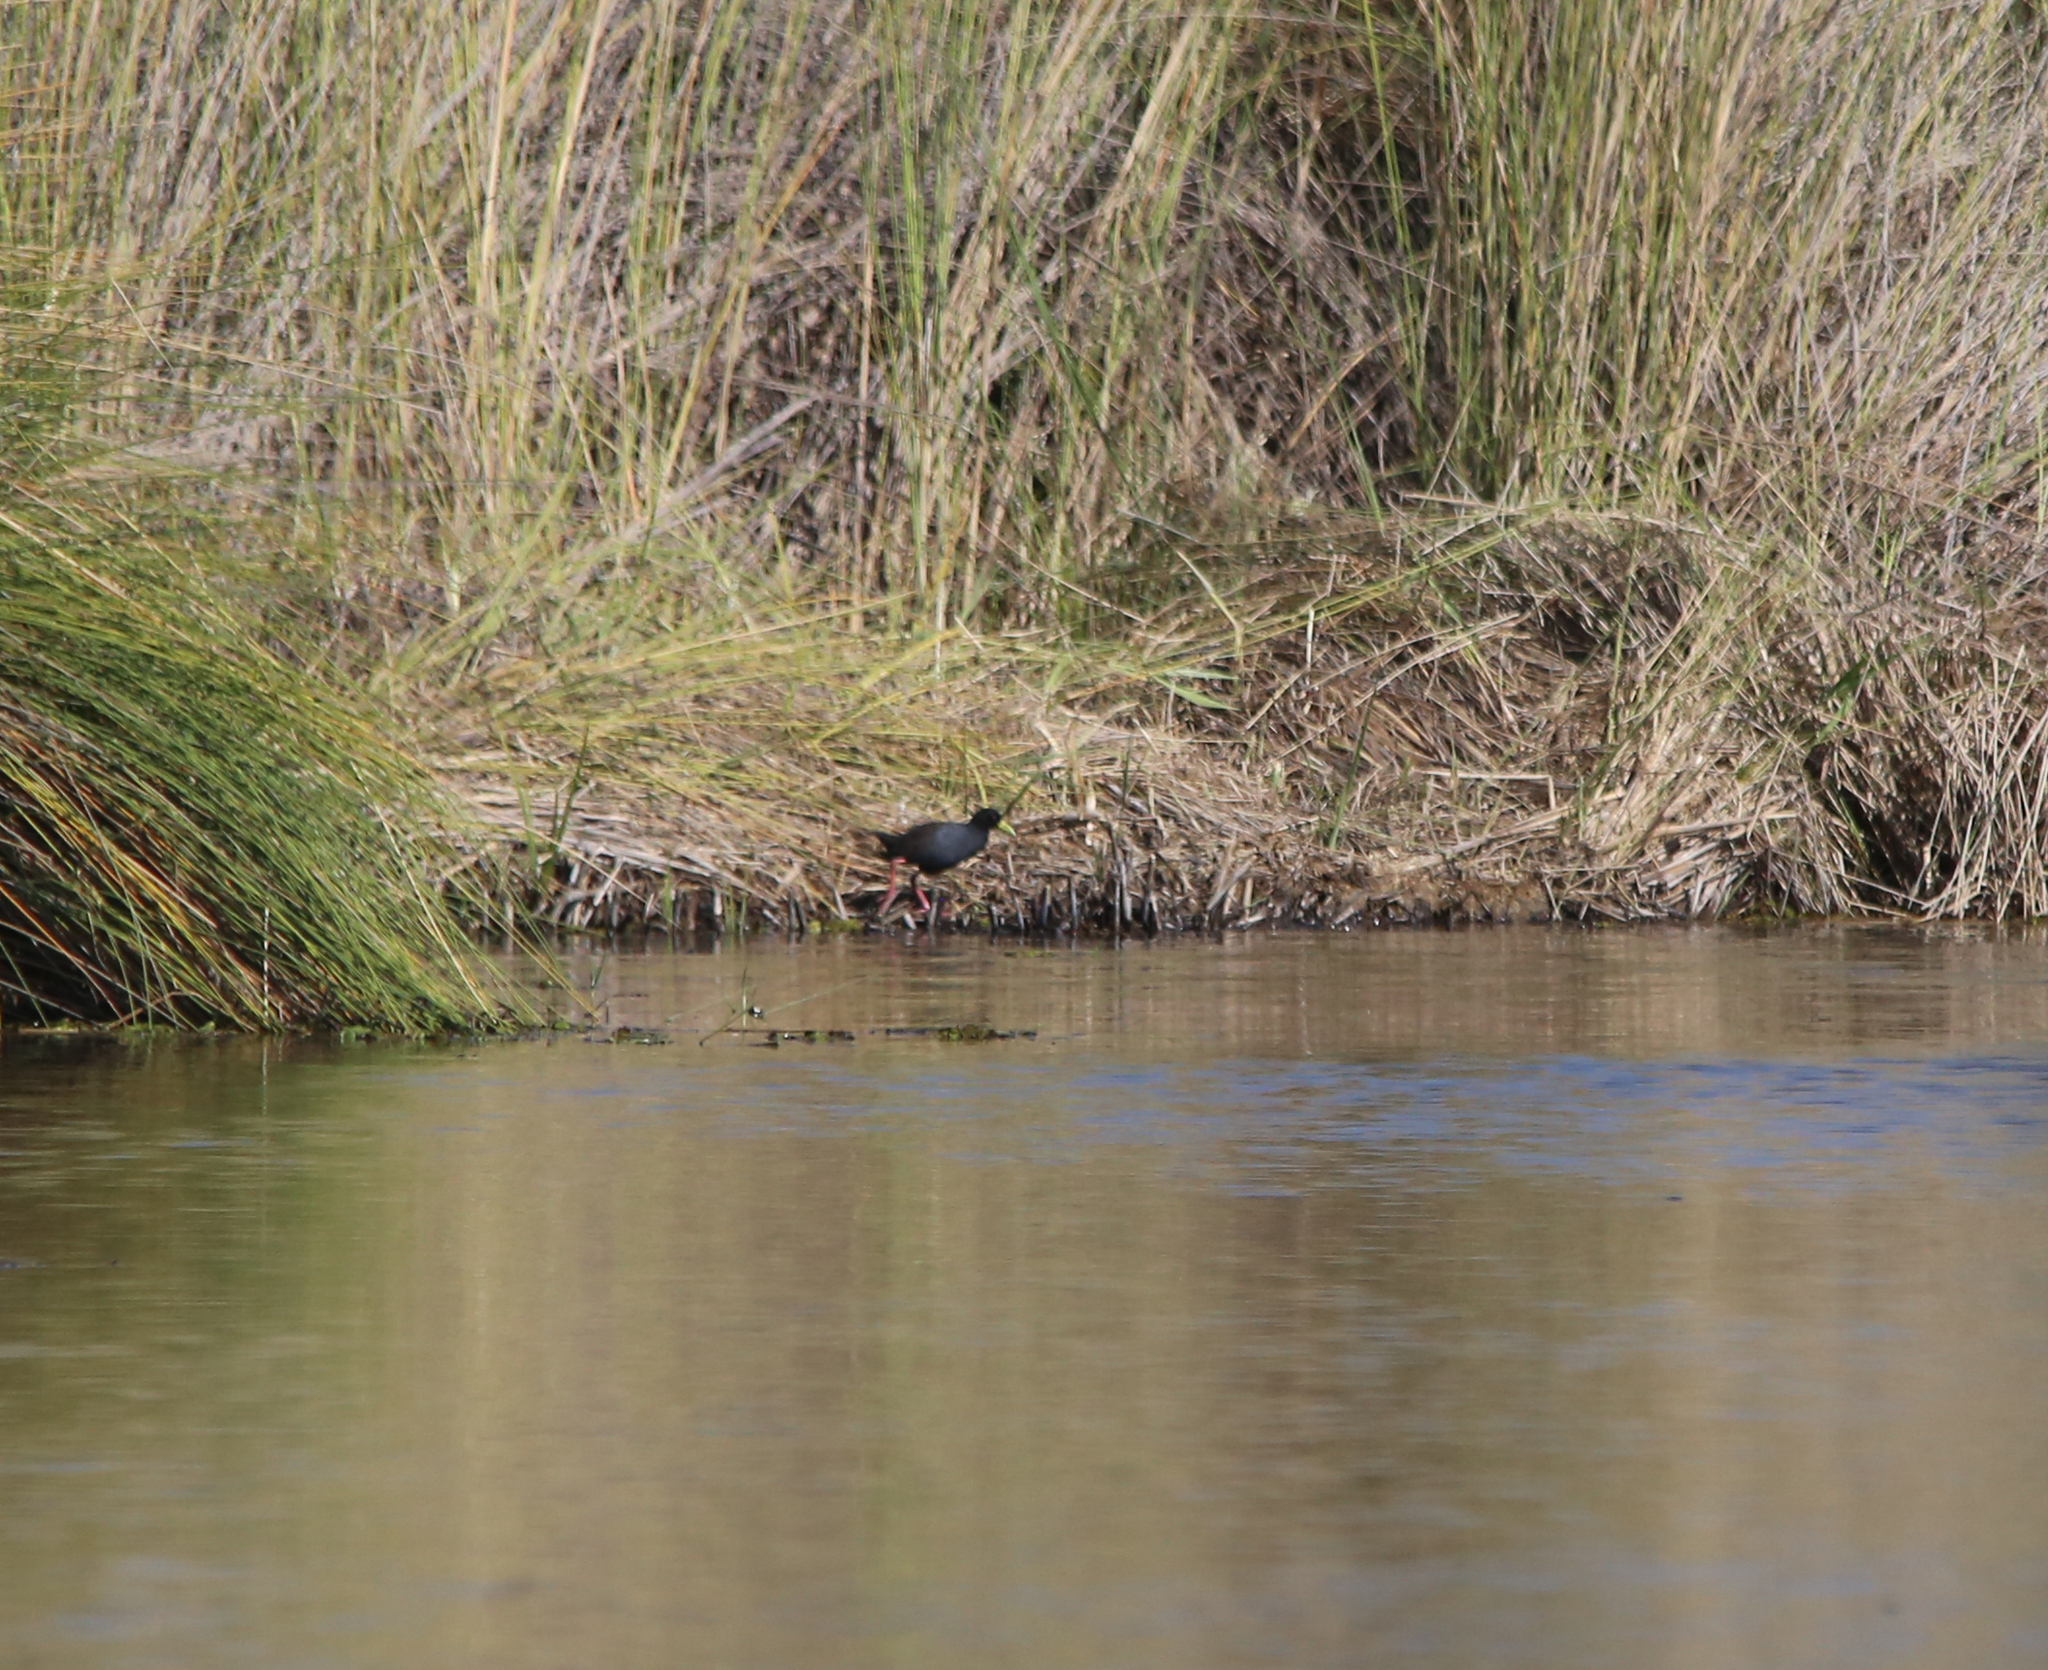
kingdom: Animalia
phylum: Chordata
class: Aves
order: Gruiformes
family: Rallidae
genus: Amaurornis
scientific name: Amaurornis flavirostra
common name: Black crake
